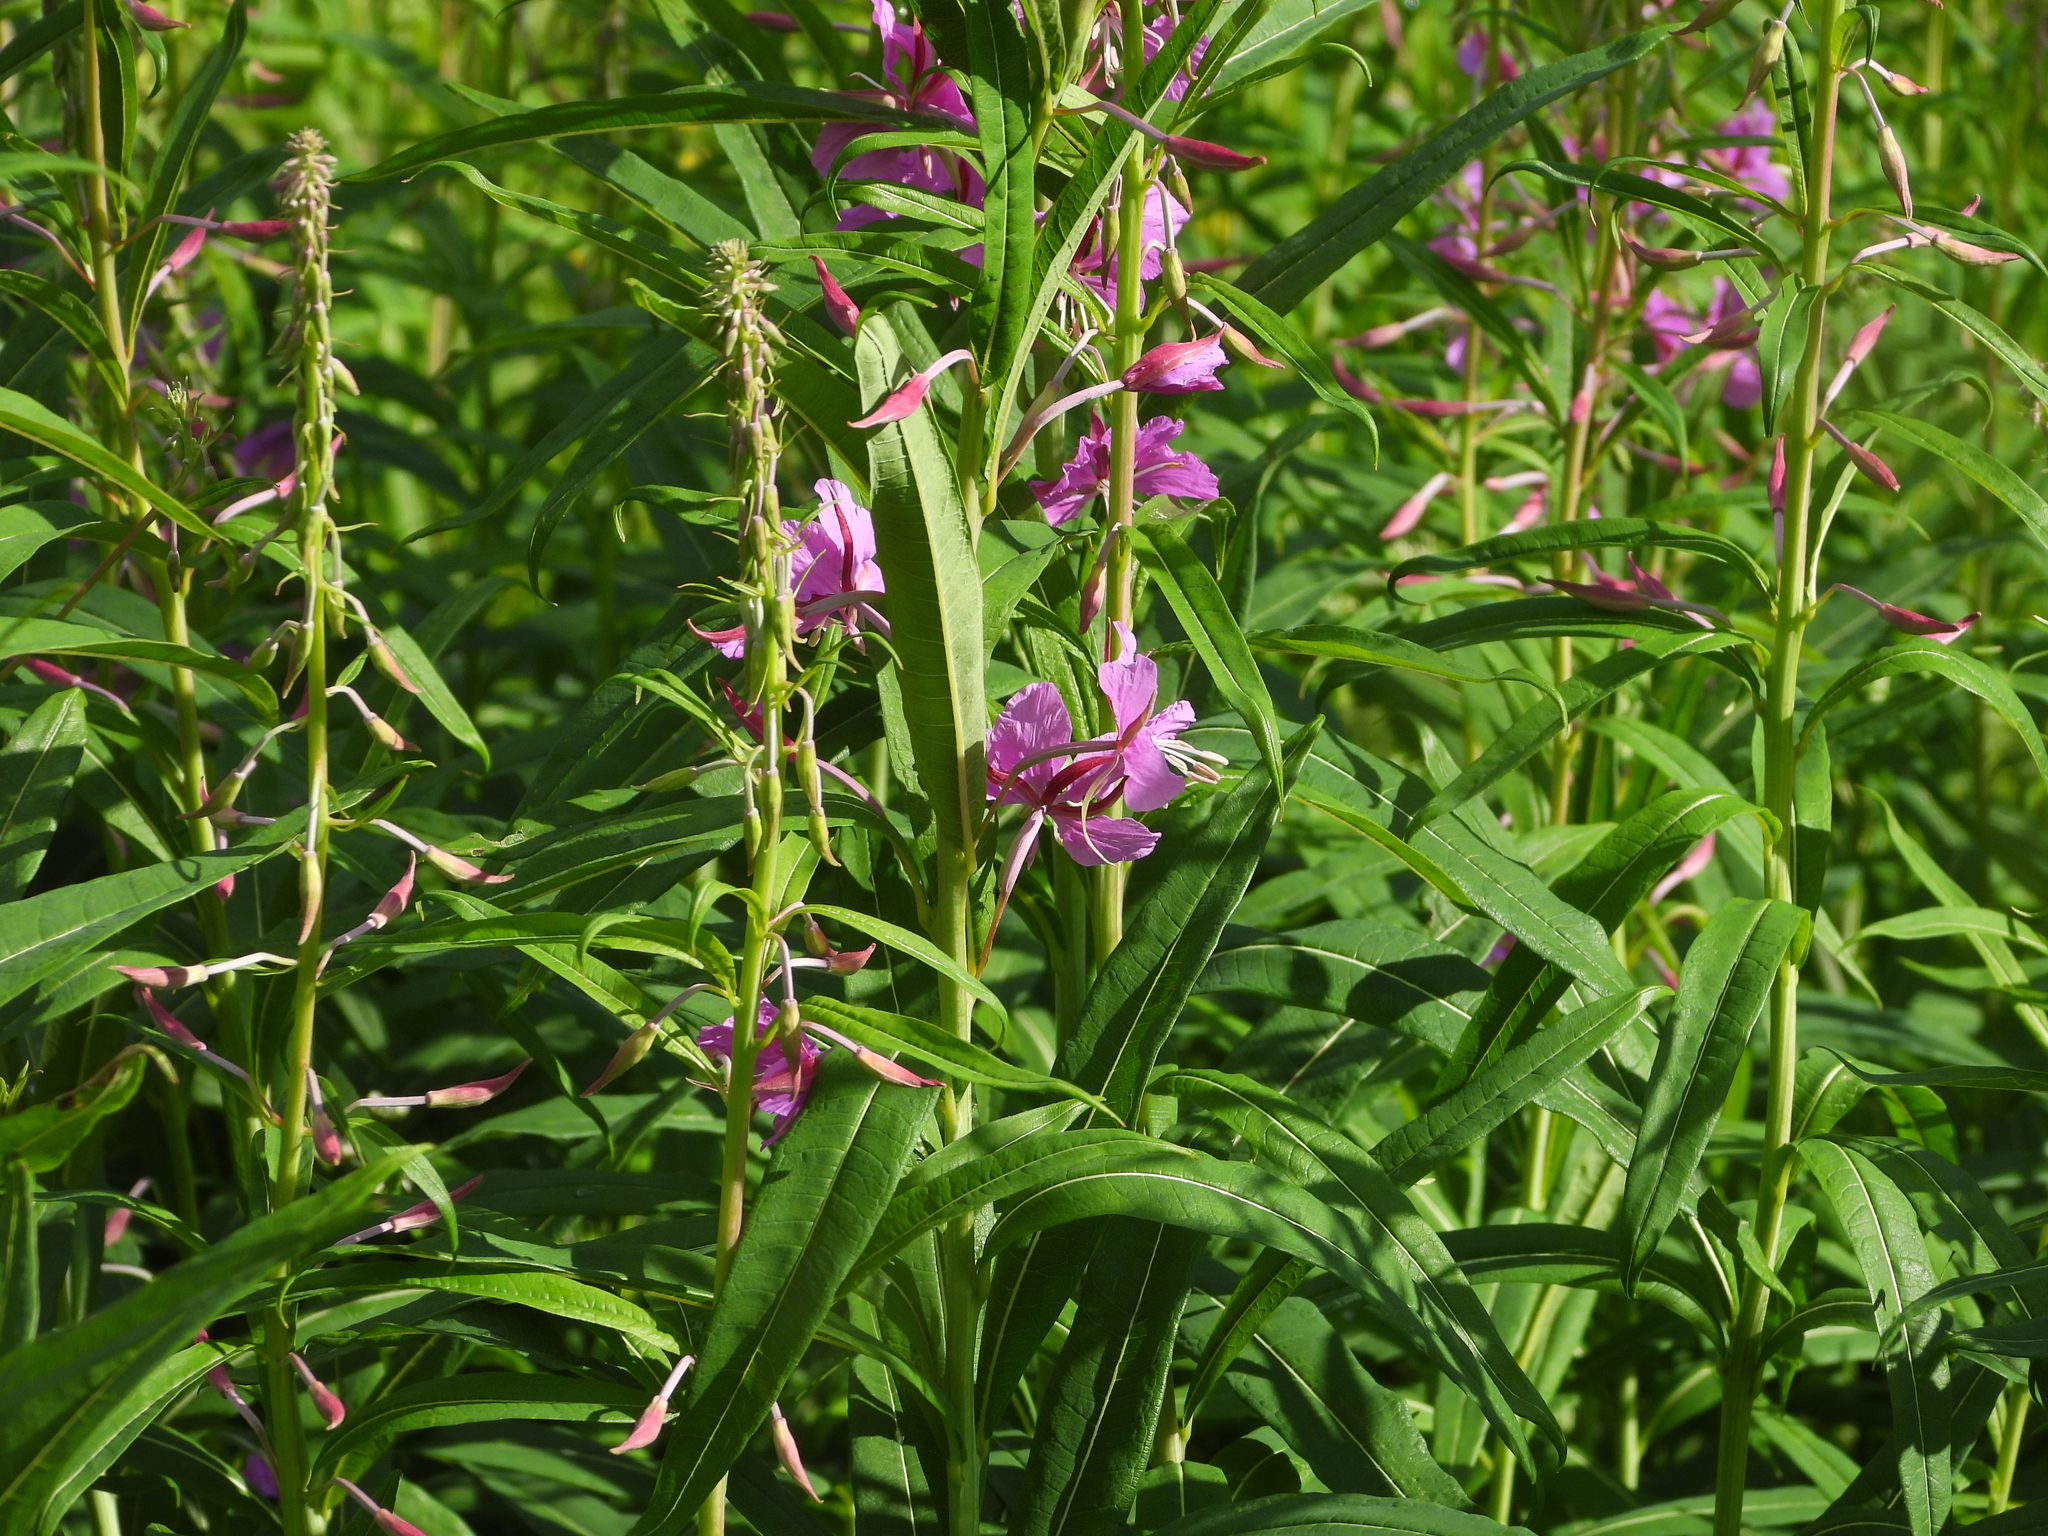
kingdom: Plantae
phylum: Tracheophyta
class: Magnoliopsida
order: Myrtales
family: Onagraceae
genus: Chamaenerion
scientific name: Chamaenerion angustifolium
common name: Fireweed
